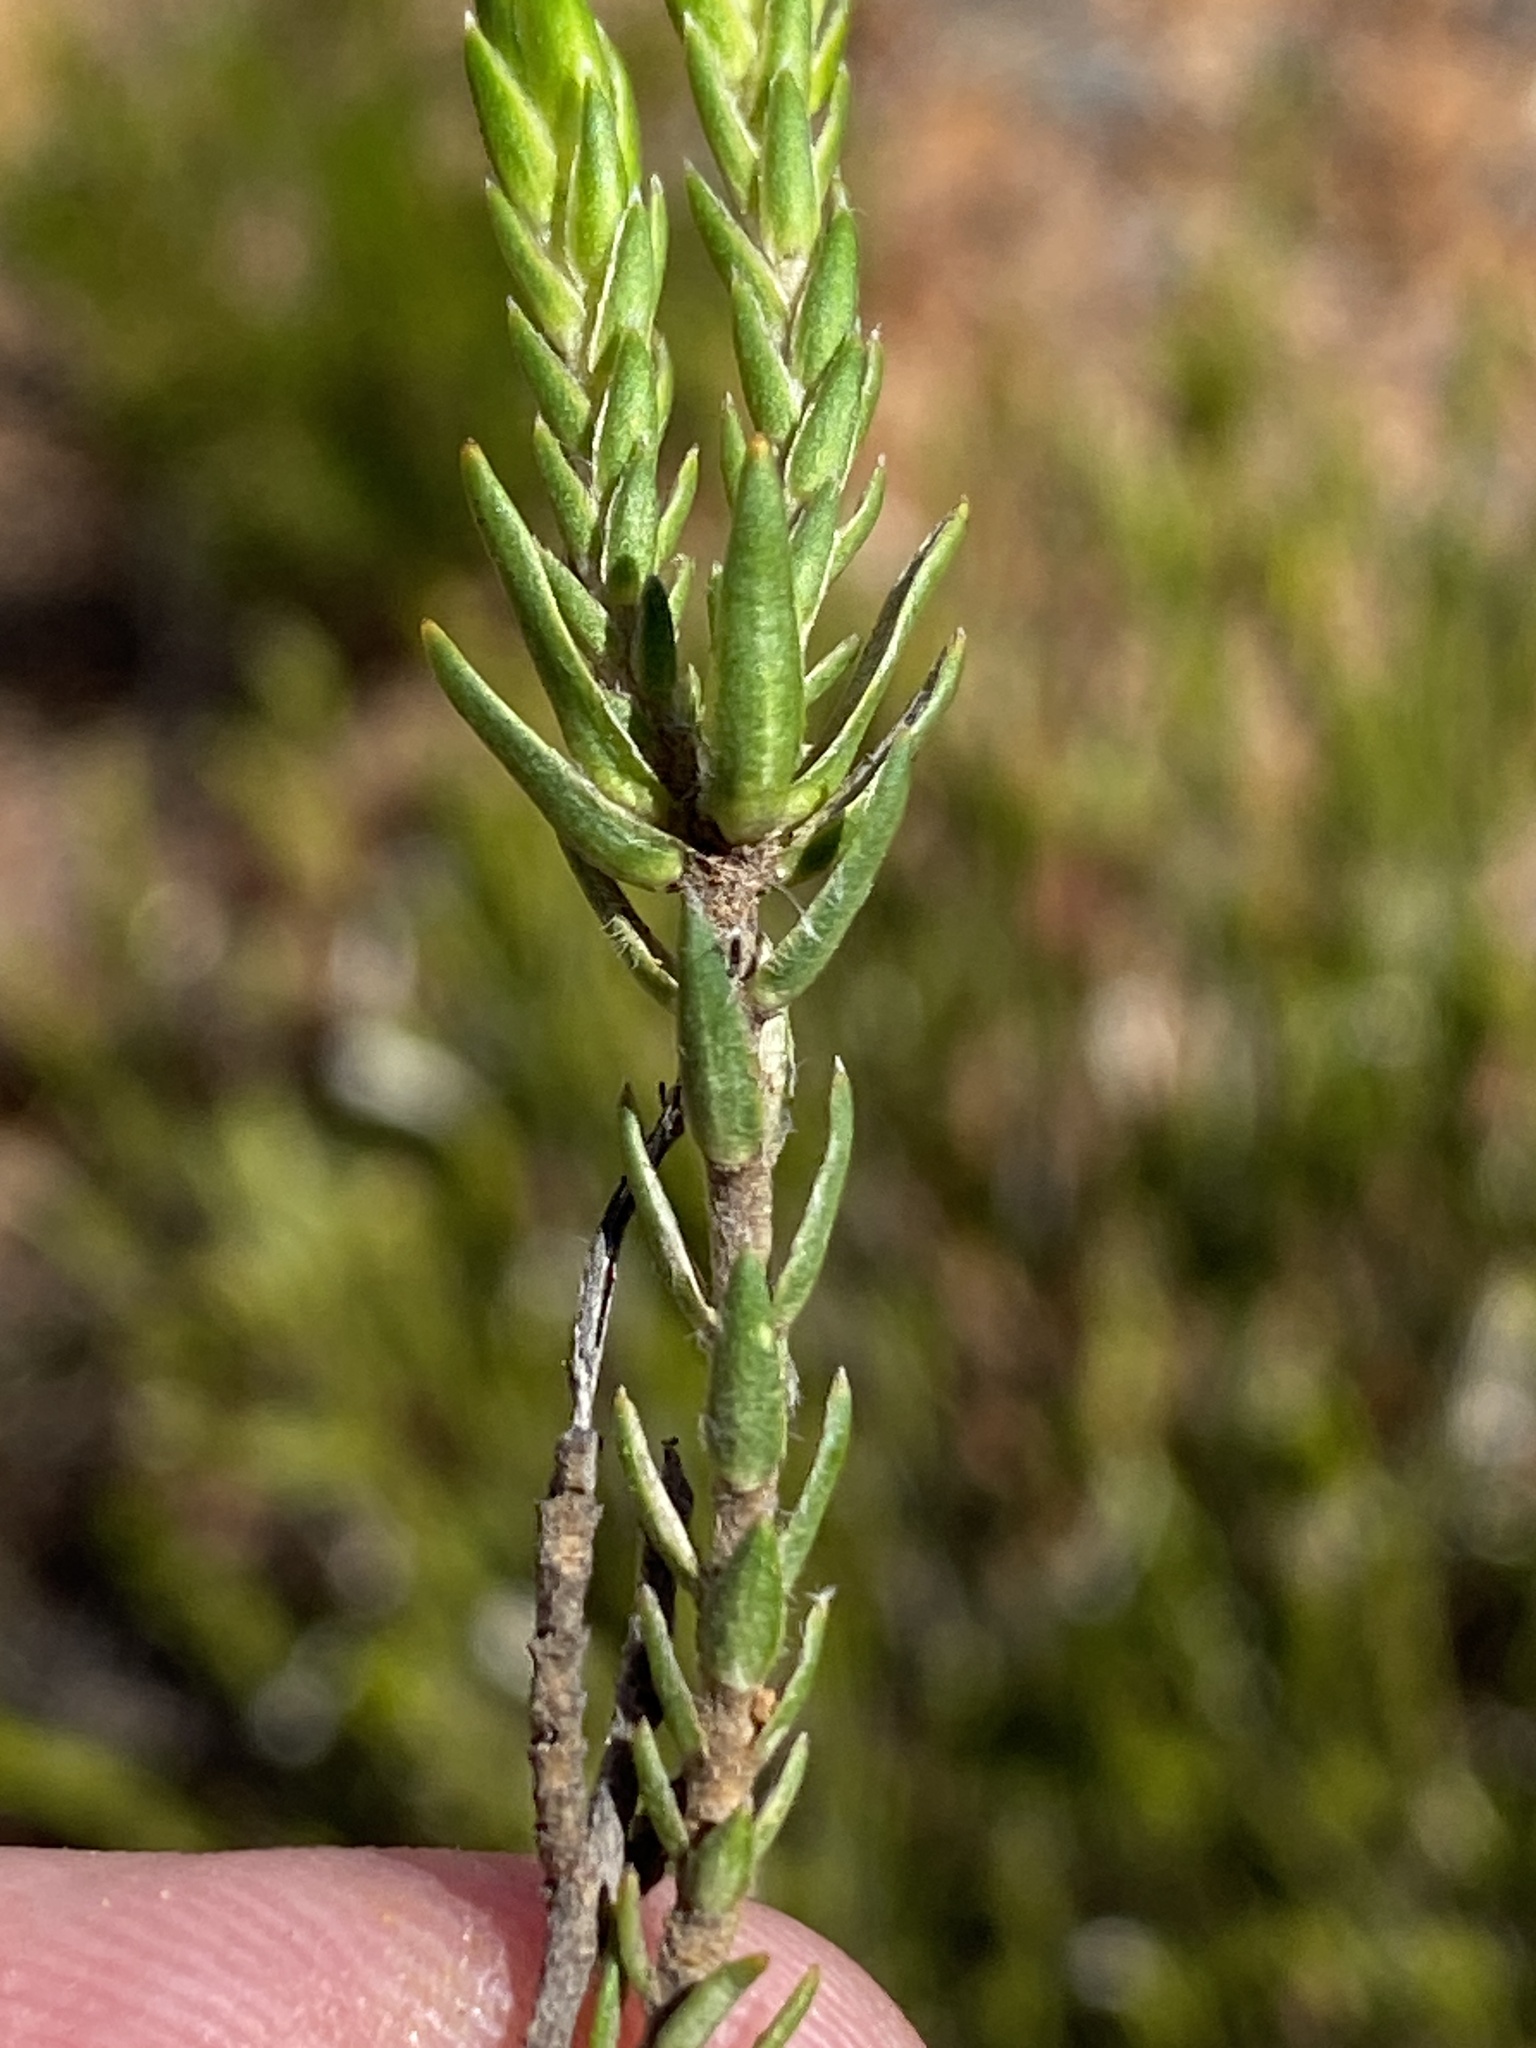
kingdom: Plantae
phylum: Tracheophyta
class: Magnoliopsida
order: Malvales
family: Thymelaeaceae
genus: Gnidia
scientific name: Gnidia leipoldtii
